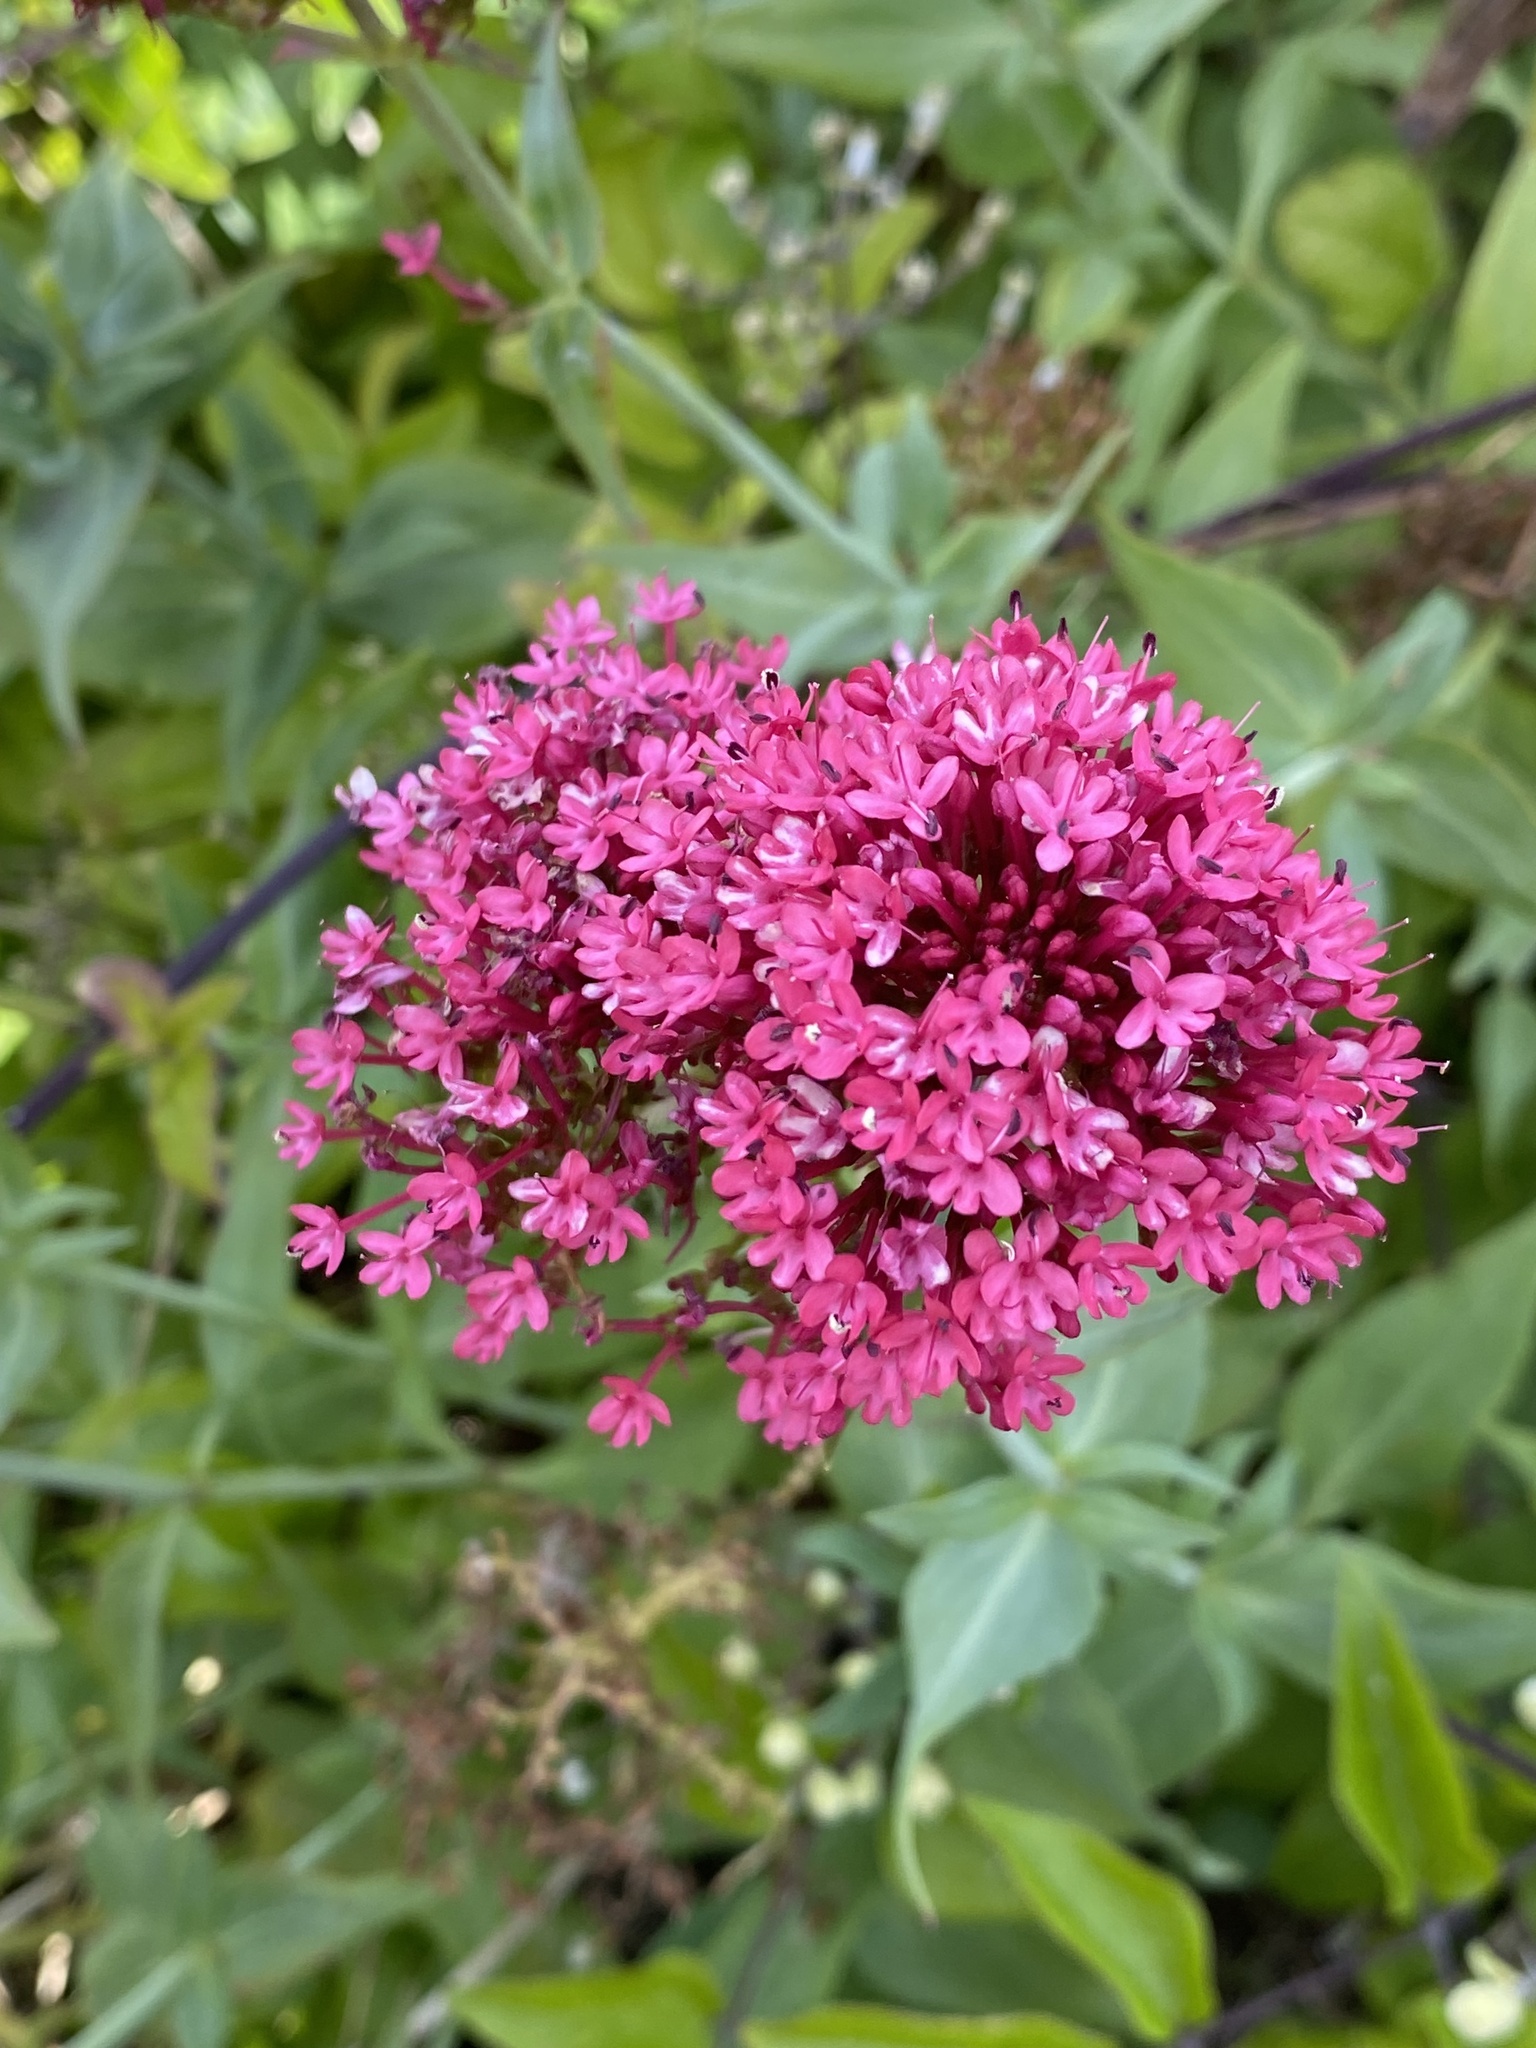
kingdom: Plantae
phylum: Tracheophyta
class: Magnoliopsida
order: Dipsacales
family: Caprifoliaceae
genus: Centranthus
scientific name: Centranthus ruber
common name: Red valerian
